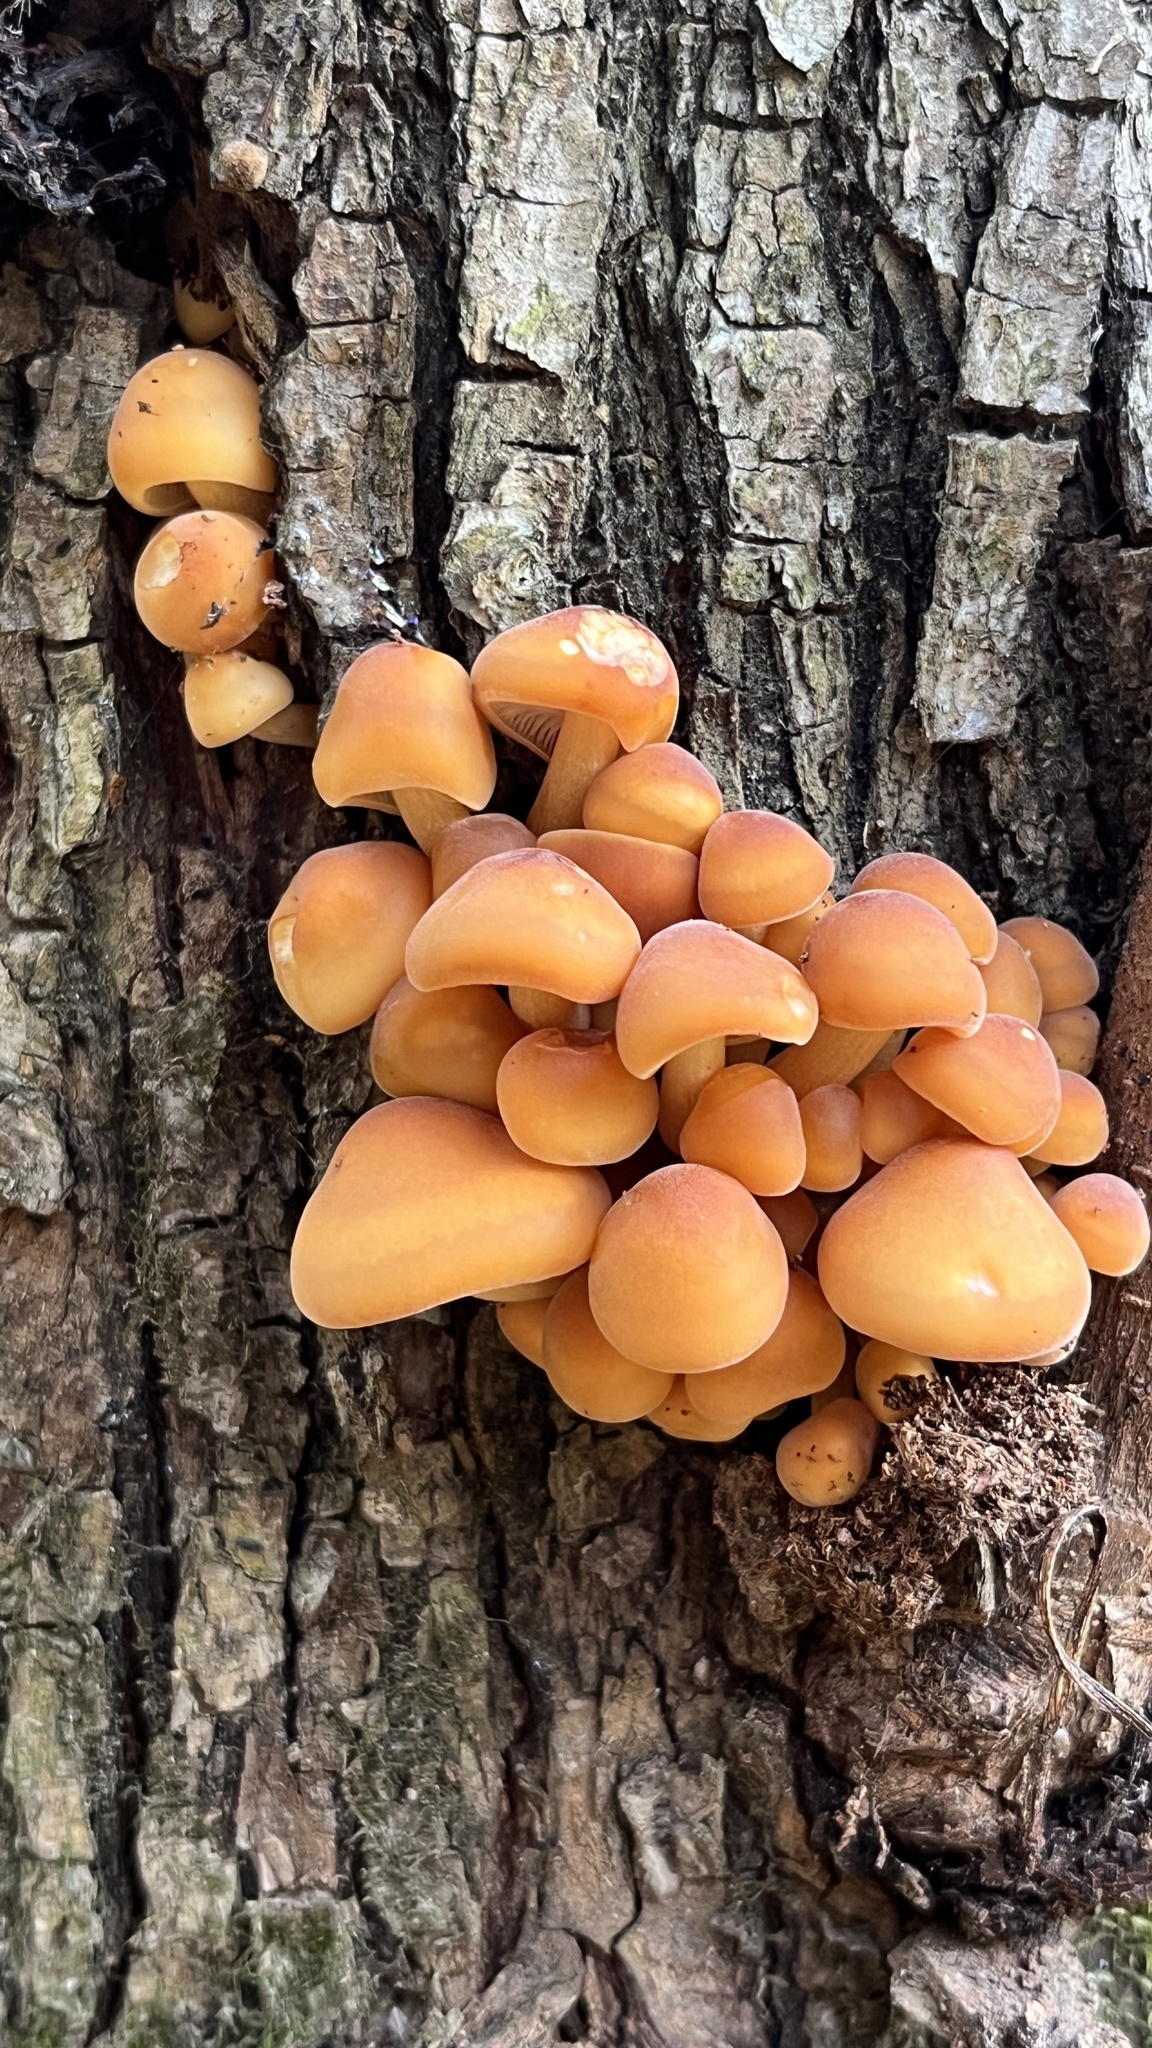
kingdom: Fungi
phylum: Basidiomycota
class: Agaricomycetes
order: Agaricales
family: Physalacriaceae
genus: Flammulina
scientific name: Flammulina
